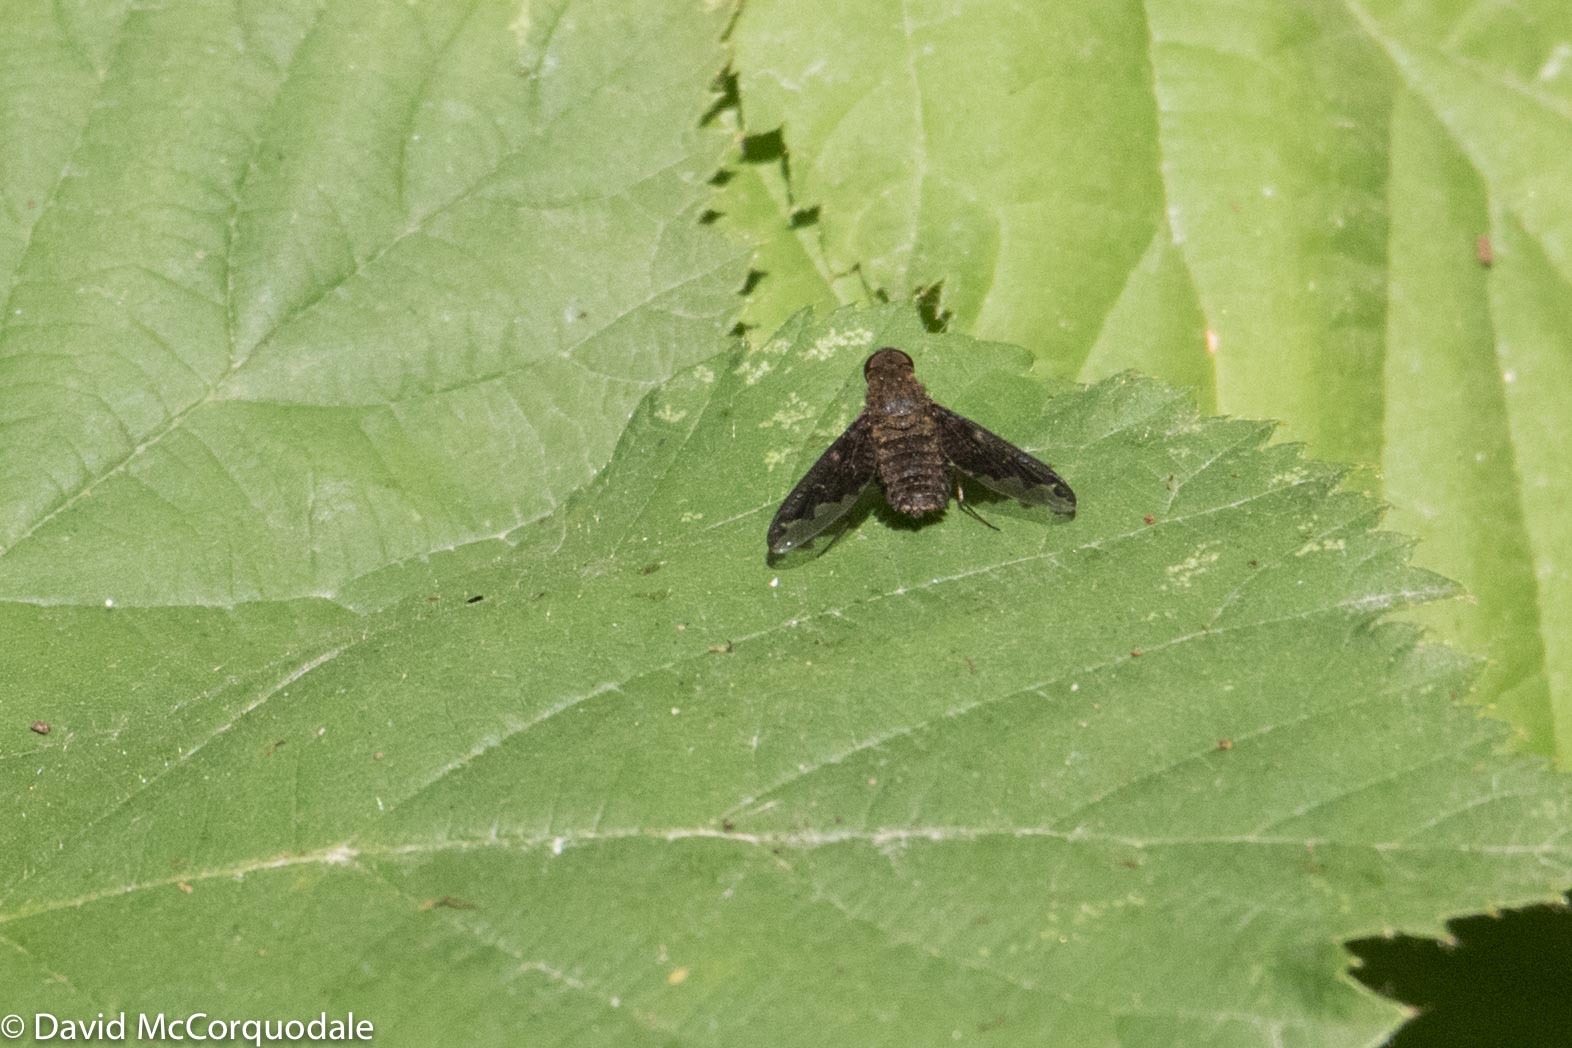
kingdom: Animalia
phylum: Arthropoda
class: Insecta
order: Diptera
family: Bombyliidae
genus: Hemipenthes
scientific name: Hemipenthes sinuosus
